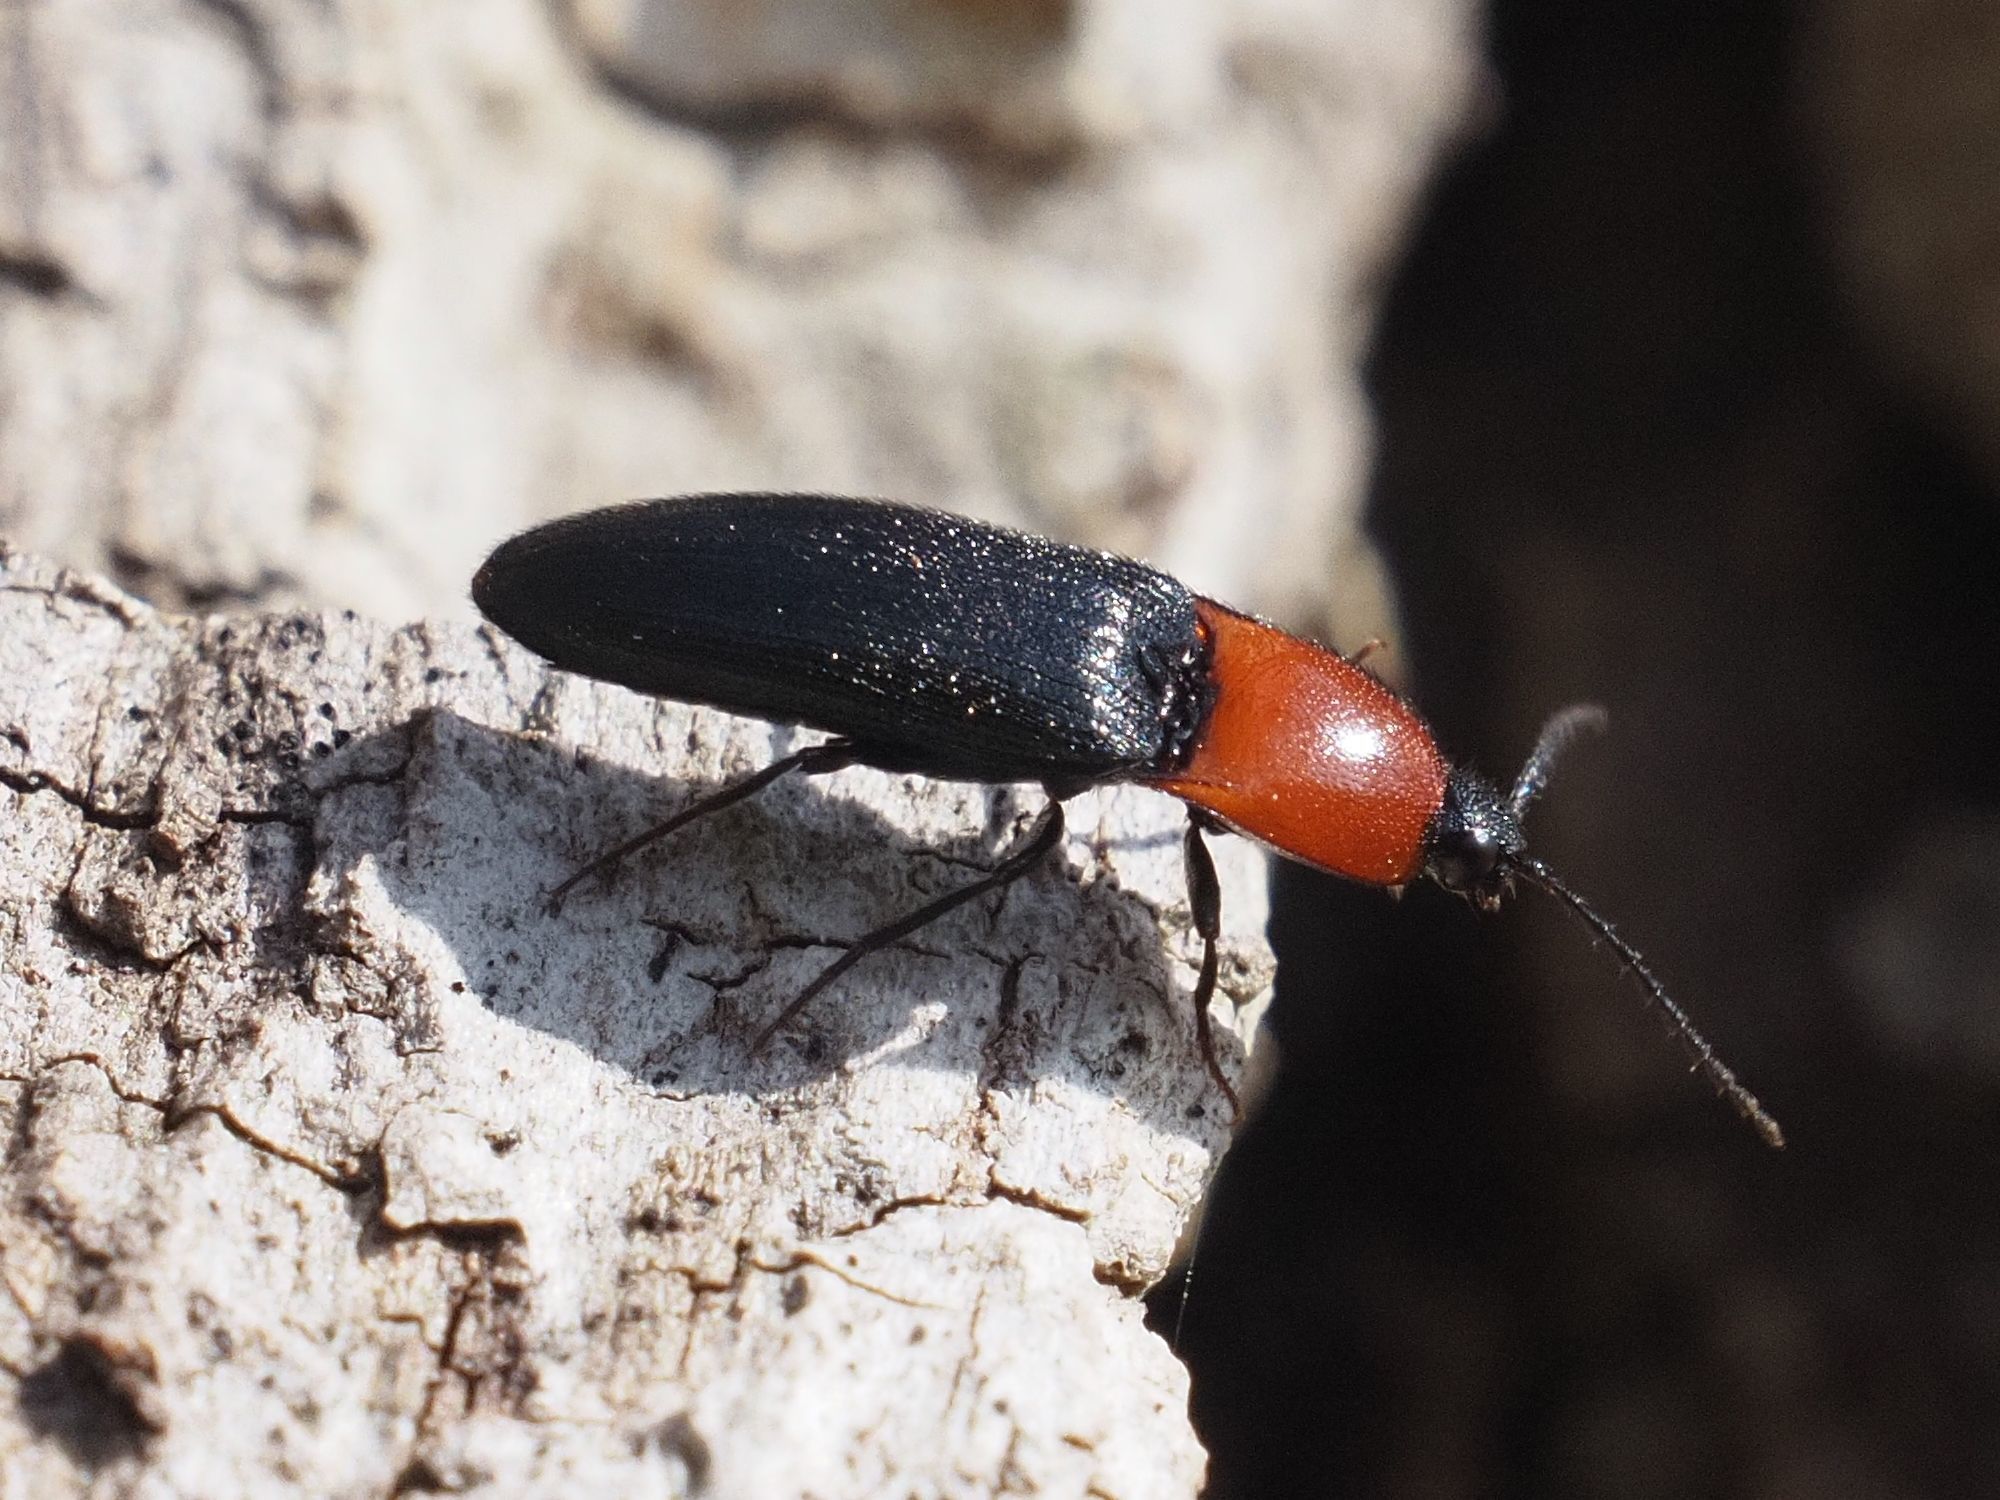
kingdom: Animalia
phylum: Arthropoda
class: Insecta
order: Coleoptera
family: Elateridae
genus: Ischnodes
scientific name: Ischnodes sanguinicollis
